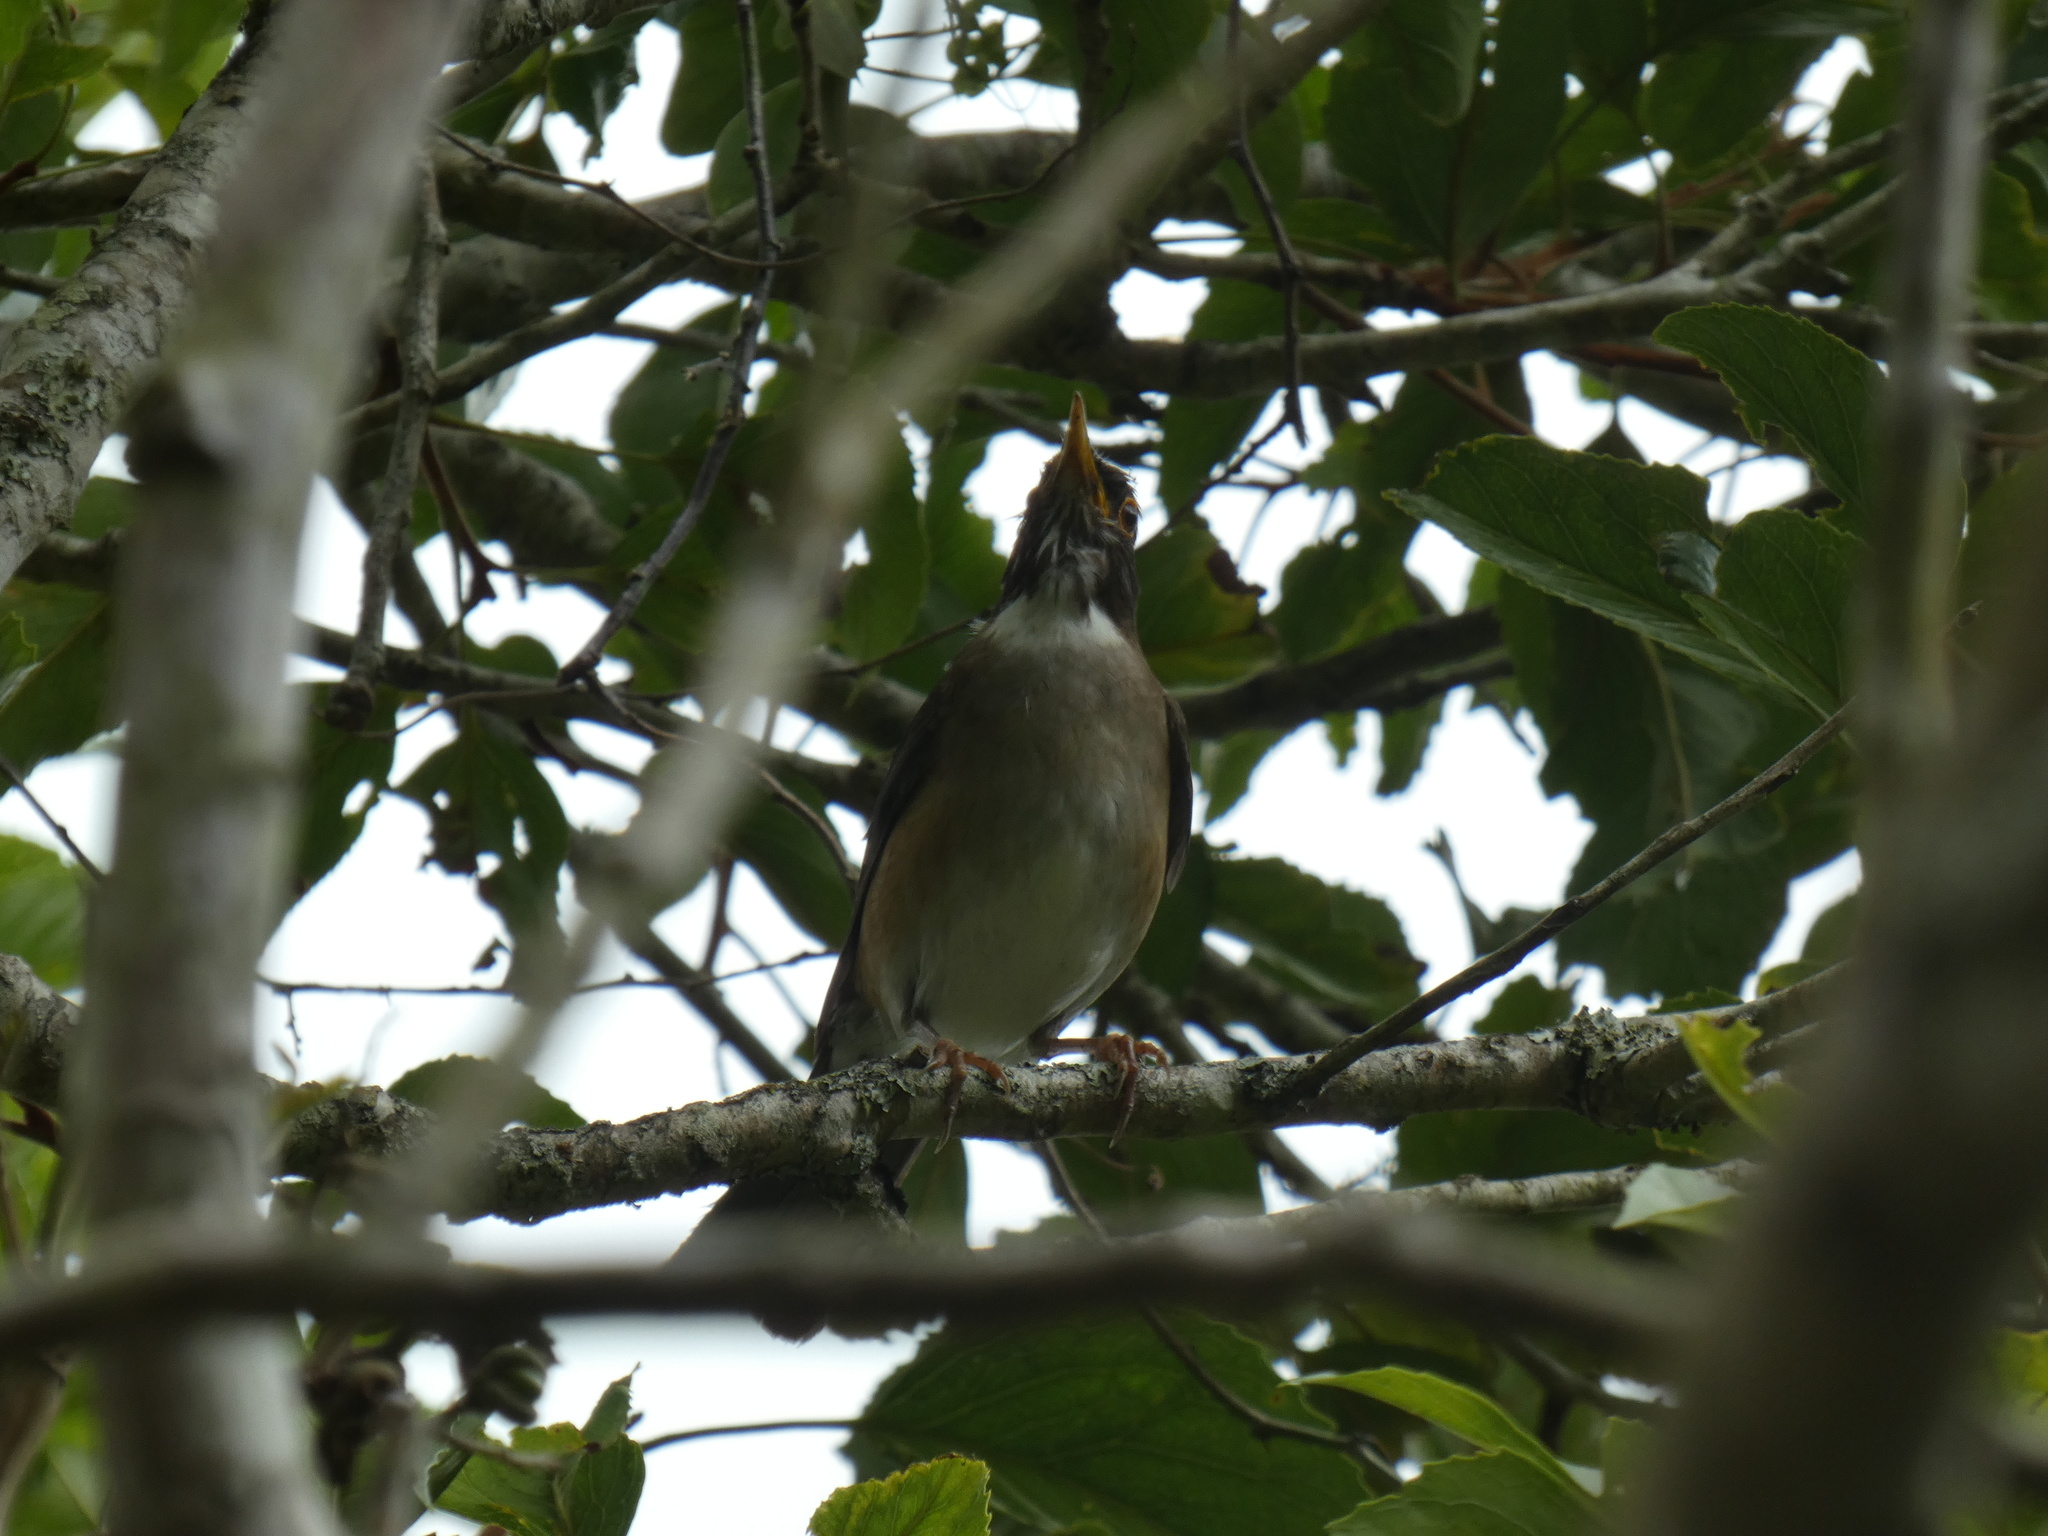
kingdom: Animalia
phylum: Chordata
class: Aves
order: Passeriformes
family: Turdidae
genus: Turdus
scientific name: Turdus albicollis
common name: White-necked thrush
